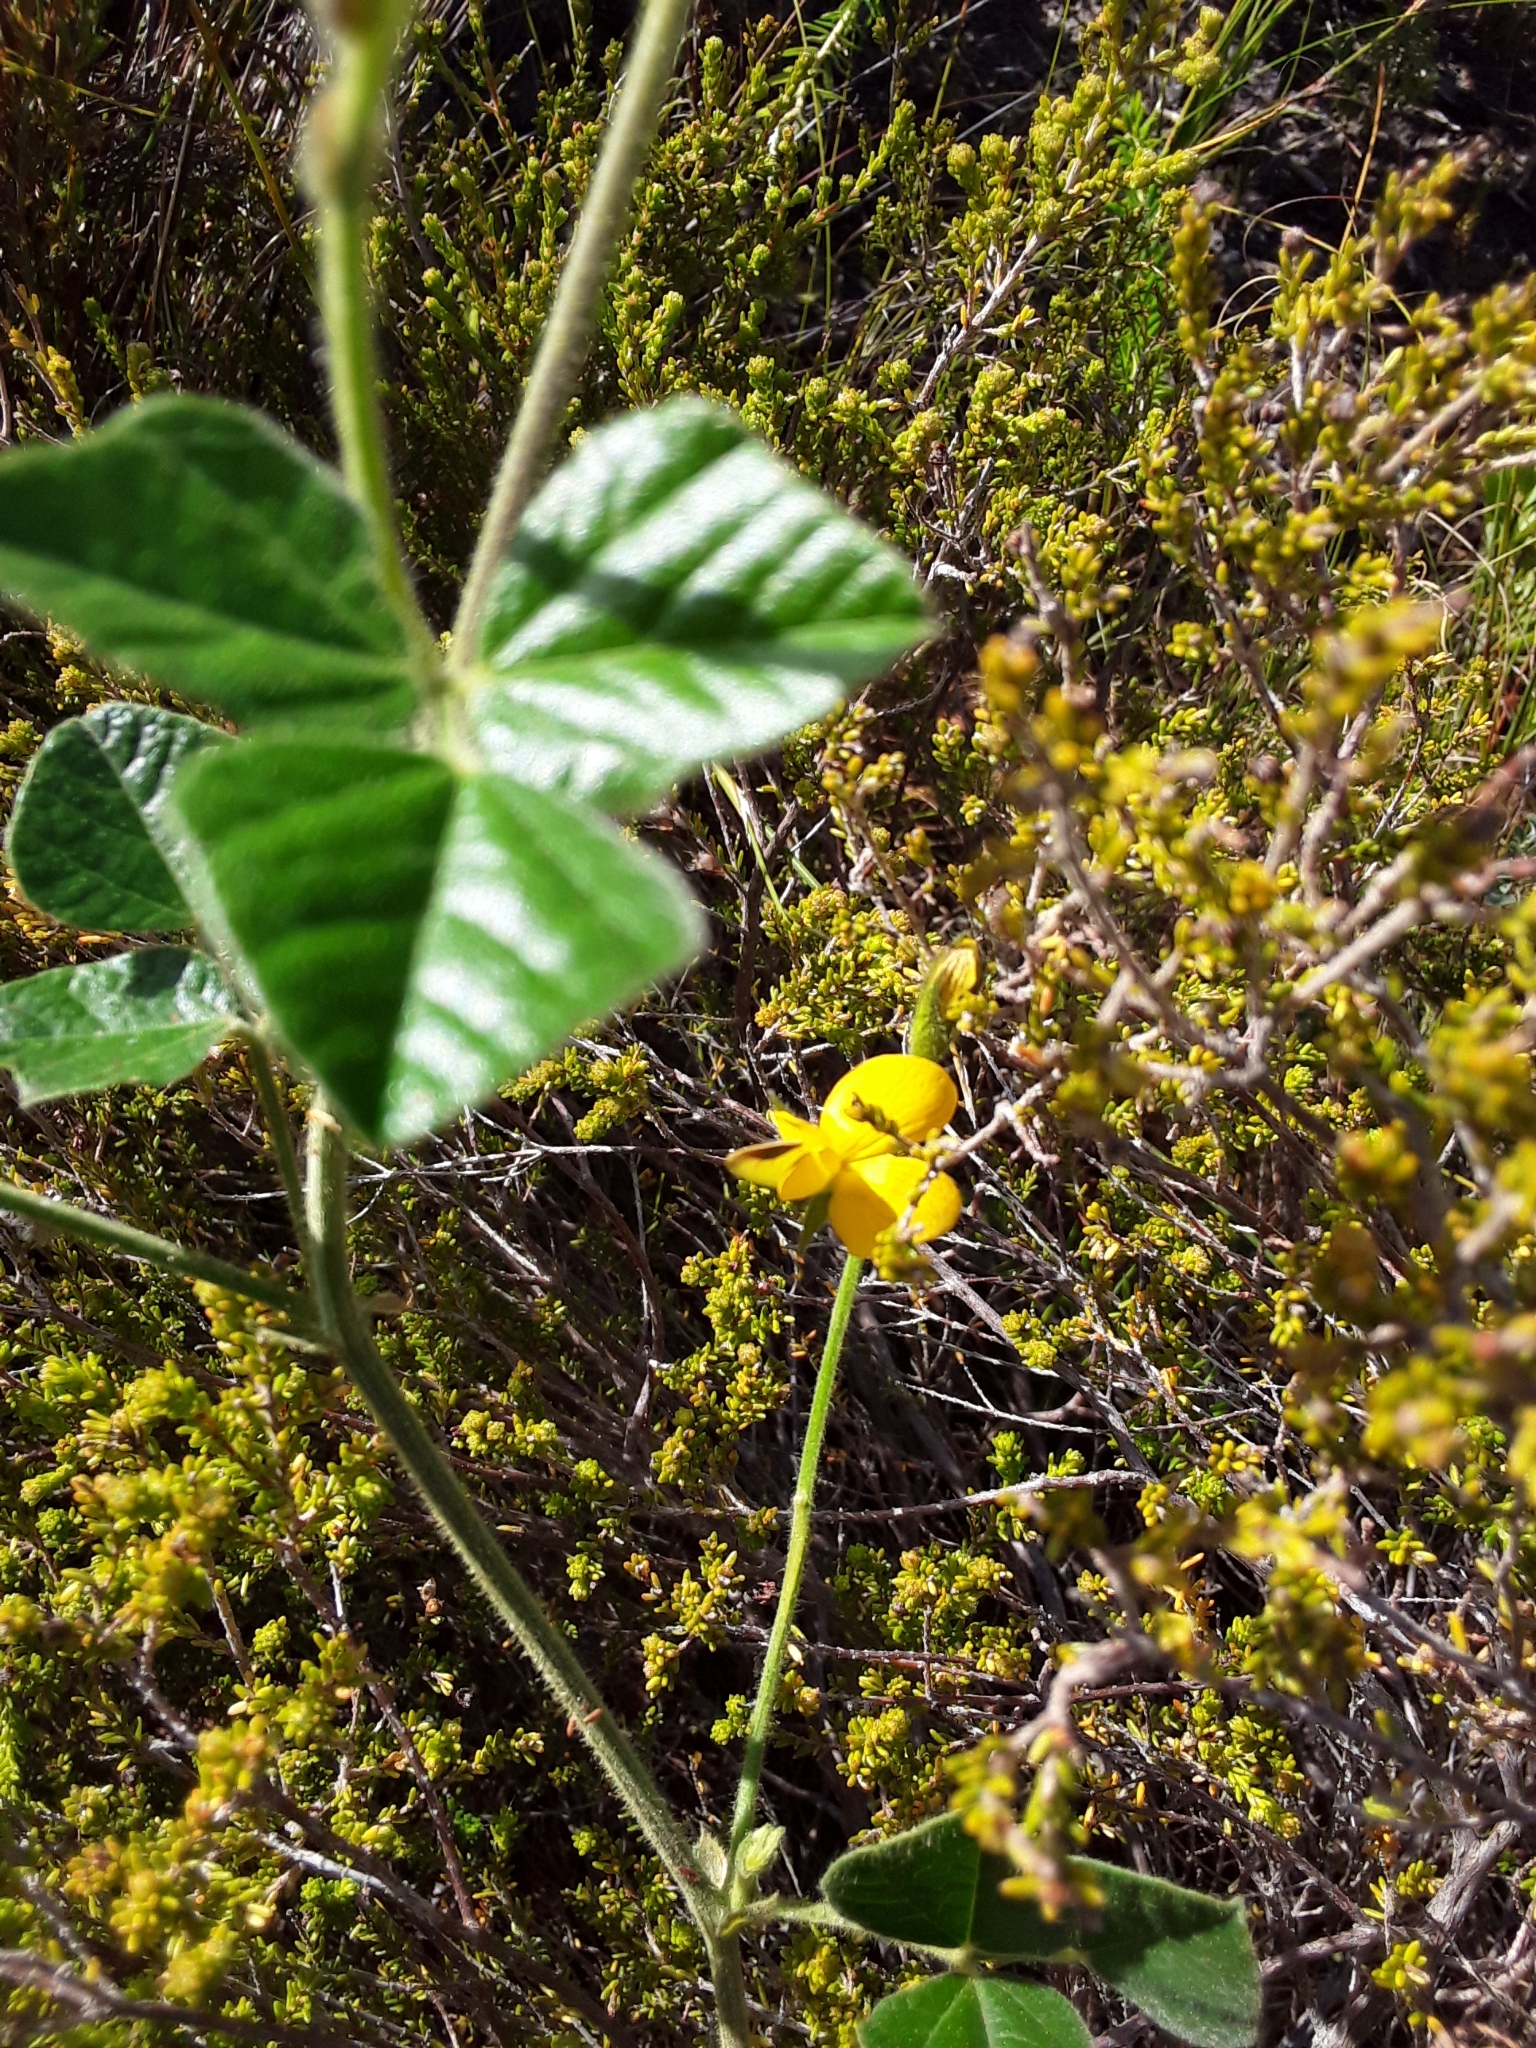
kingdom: Plantae
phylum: Tracheophyta
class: Magnoliopsida
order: Fabales
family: Fabaceae
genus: Bolusafra
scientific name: Bolusafra bituminosa
